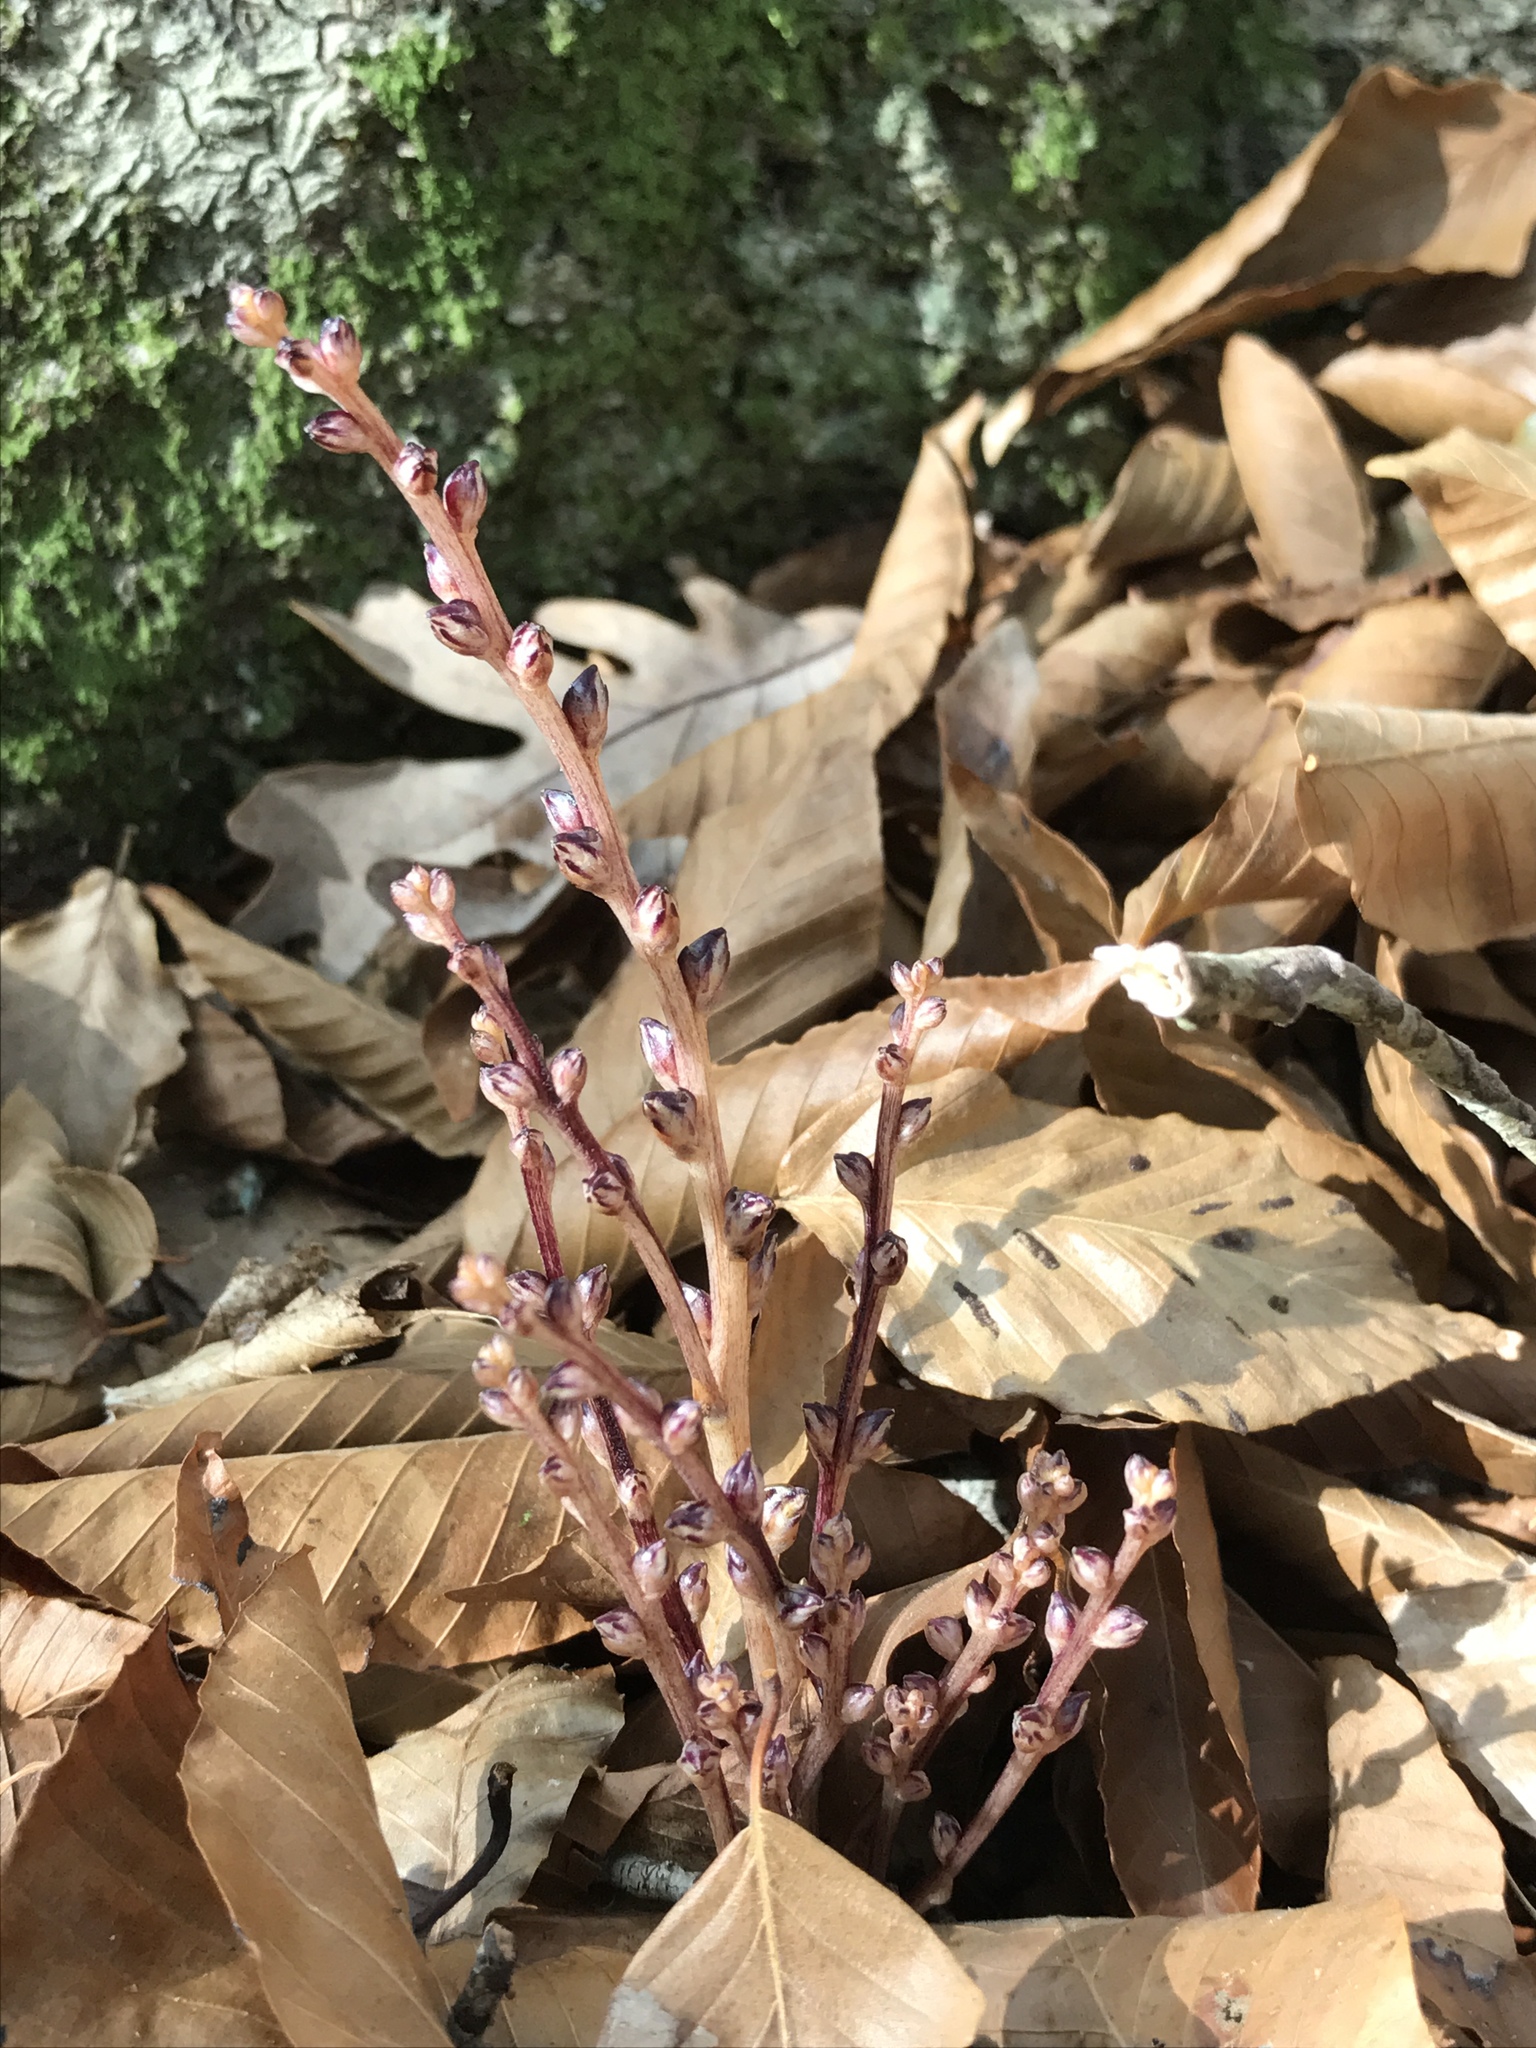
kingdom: Plantae
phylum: Tracheophyta
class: Magnoliopsida
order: Lamiales
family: Orobanchaceae
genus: Epifagus
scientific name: Epifagus virginiana
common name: Beechdrops
